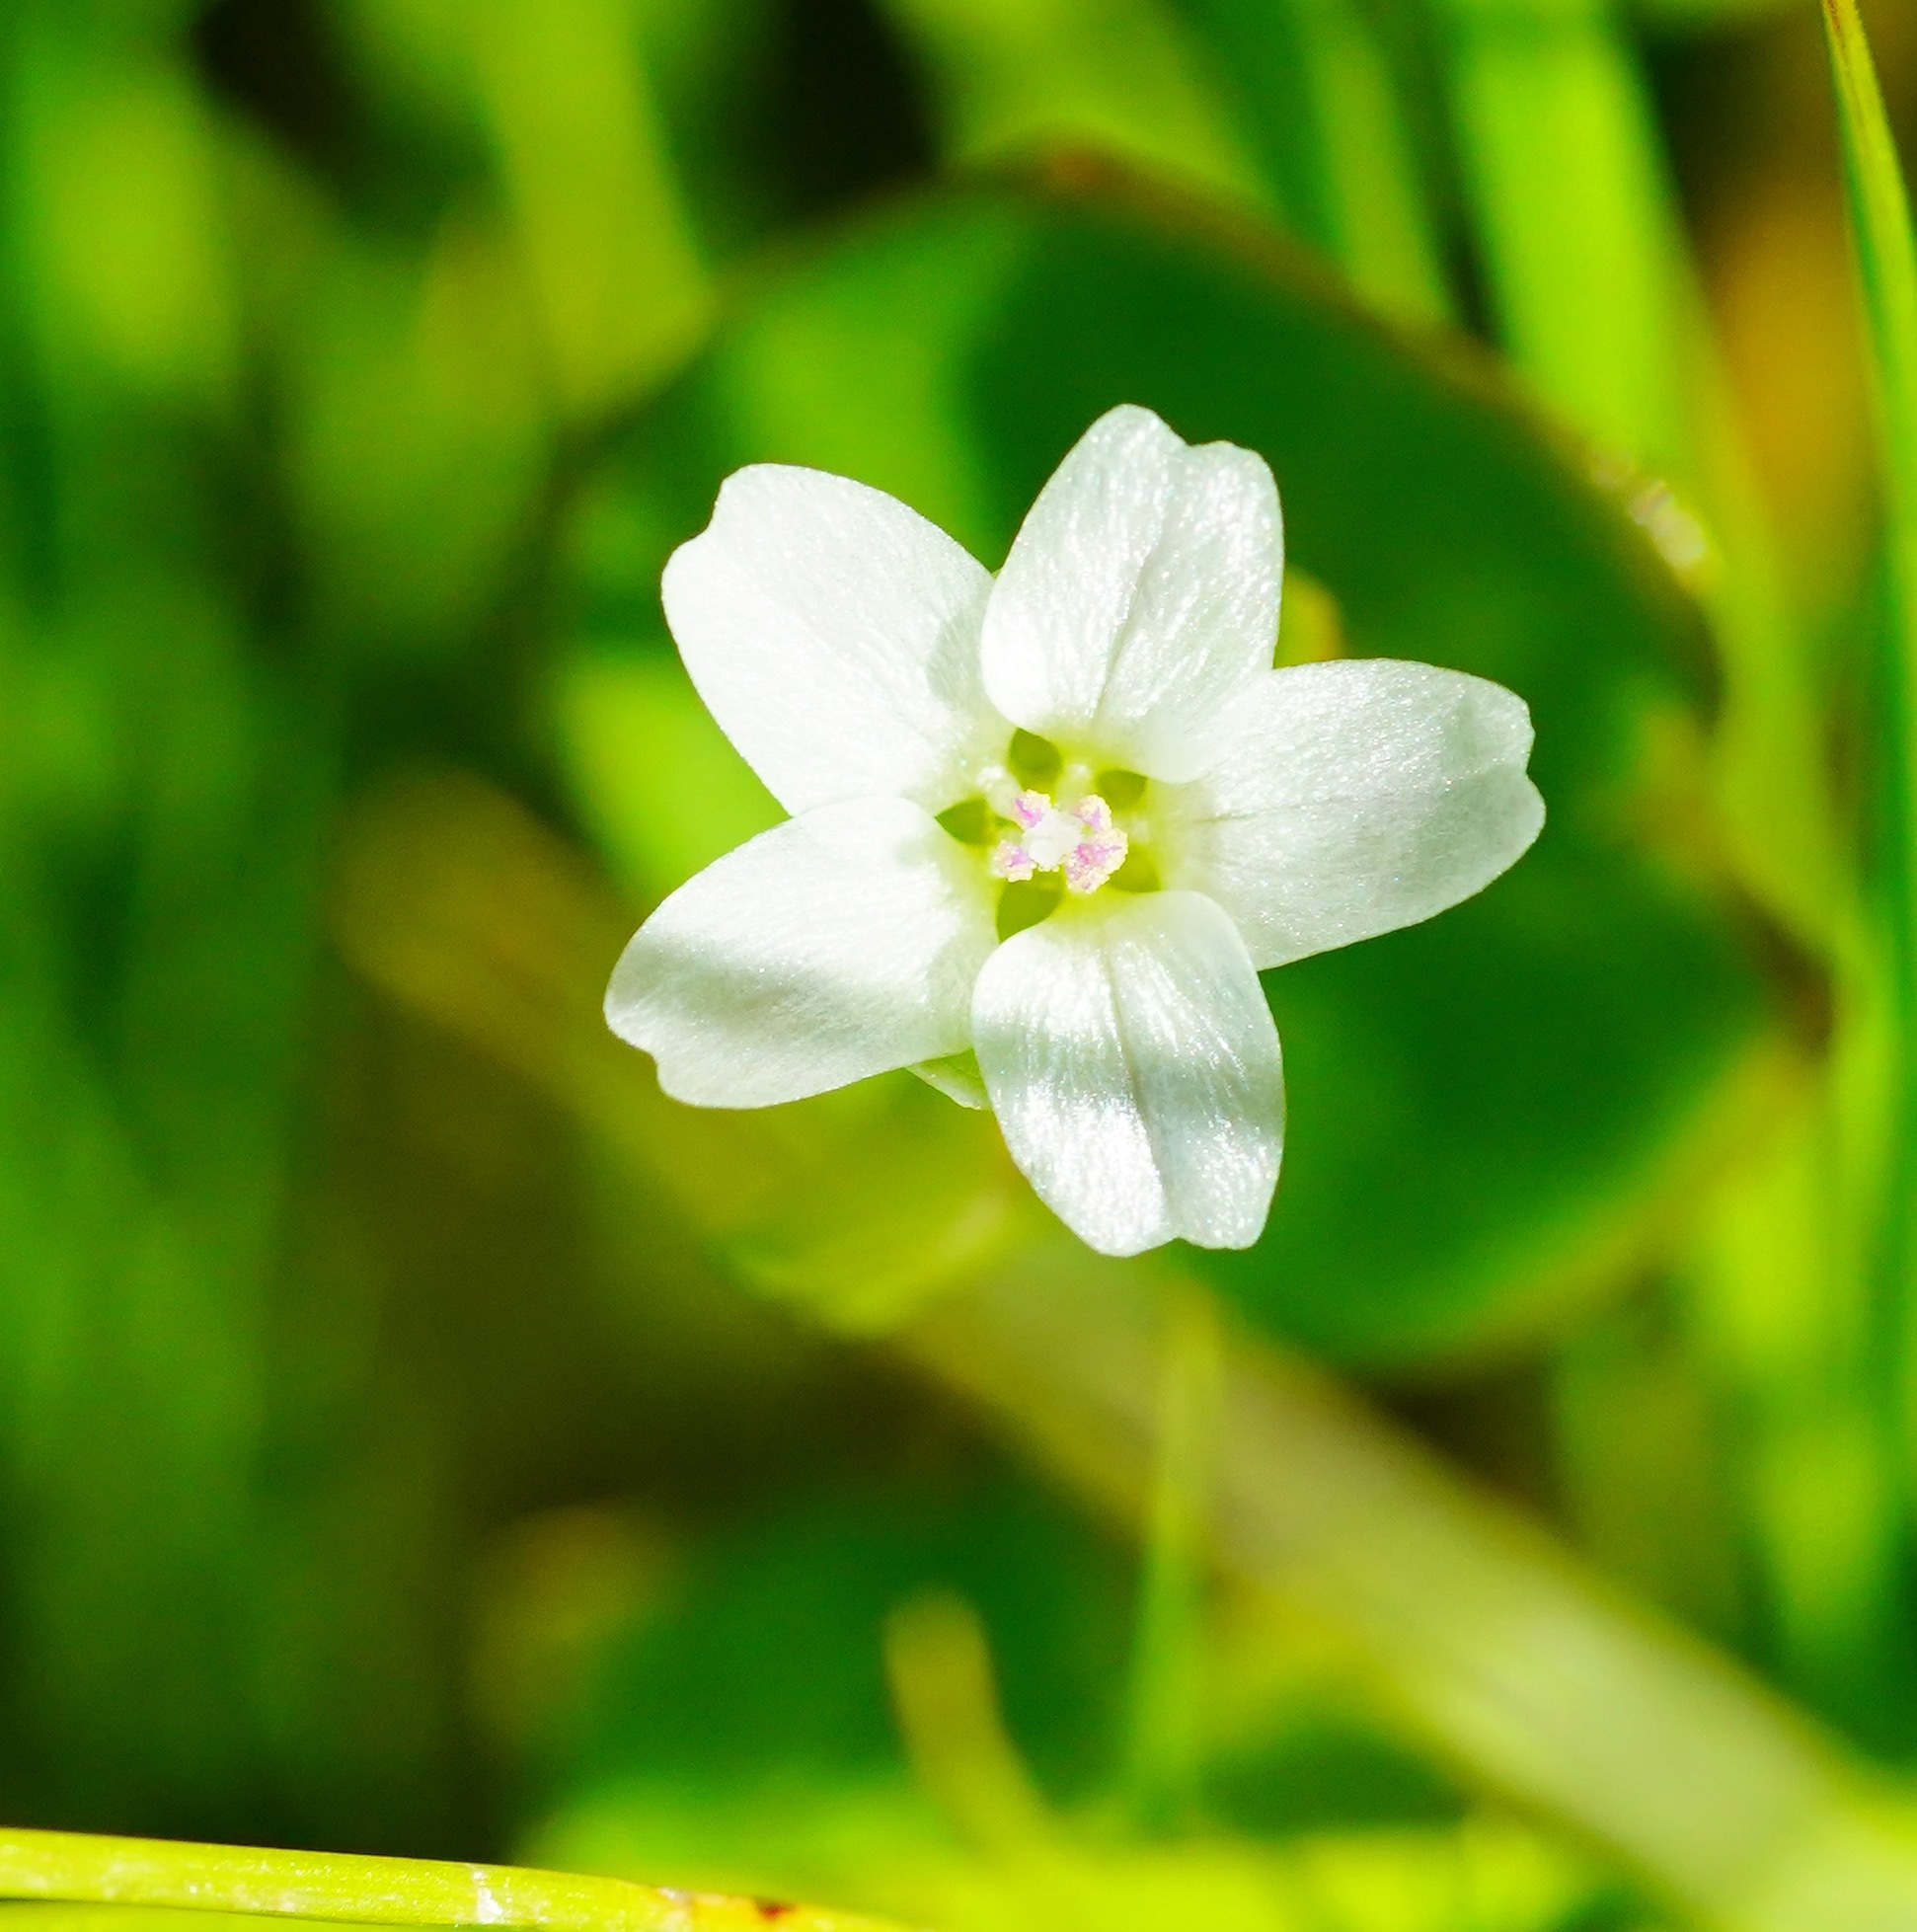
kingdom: Plantae
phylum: Tracheophyta
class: Magnoliopsida
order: Caryophyllales
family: Montiaceae
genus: Claytonia
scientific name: Claytonia perfoliata
